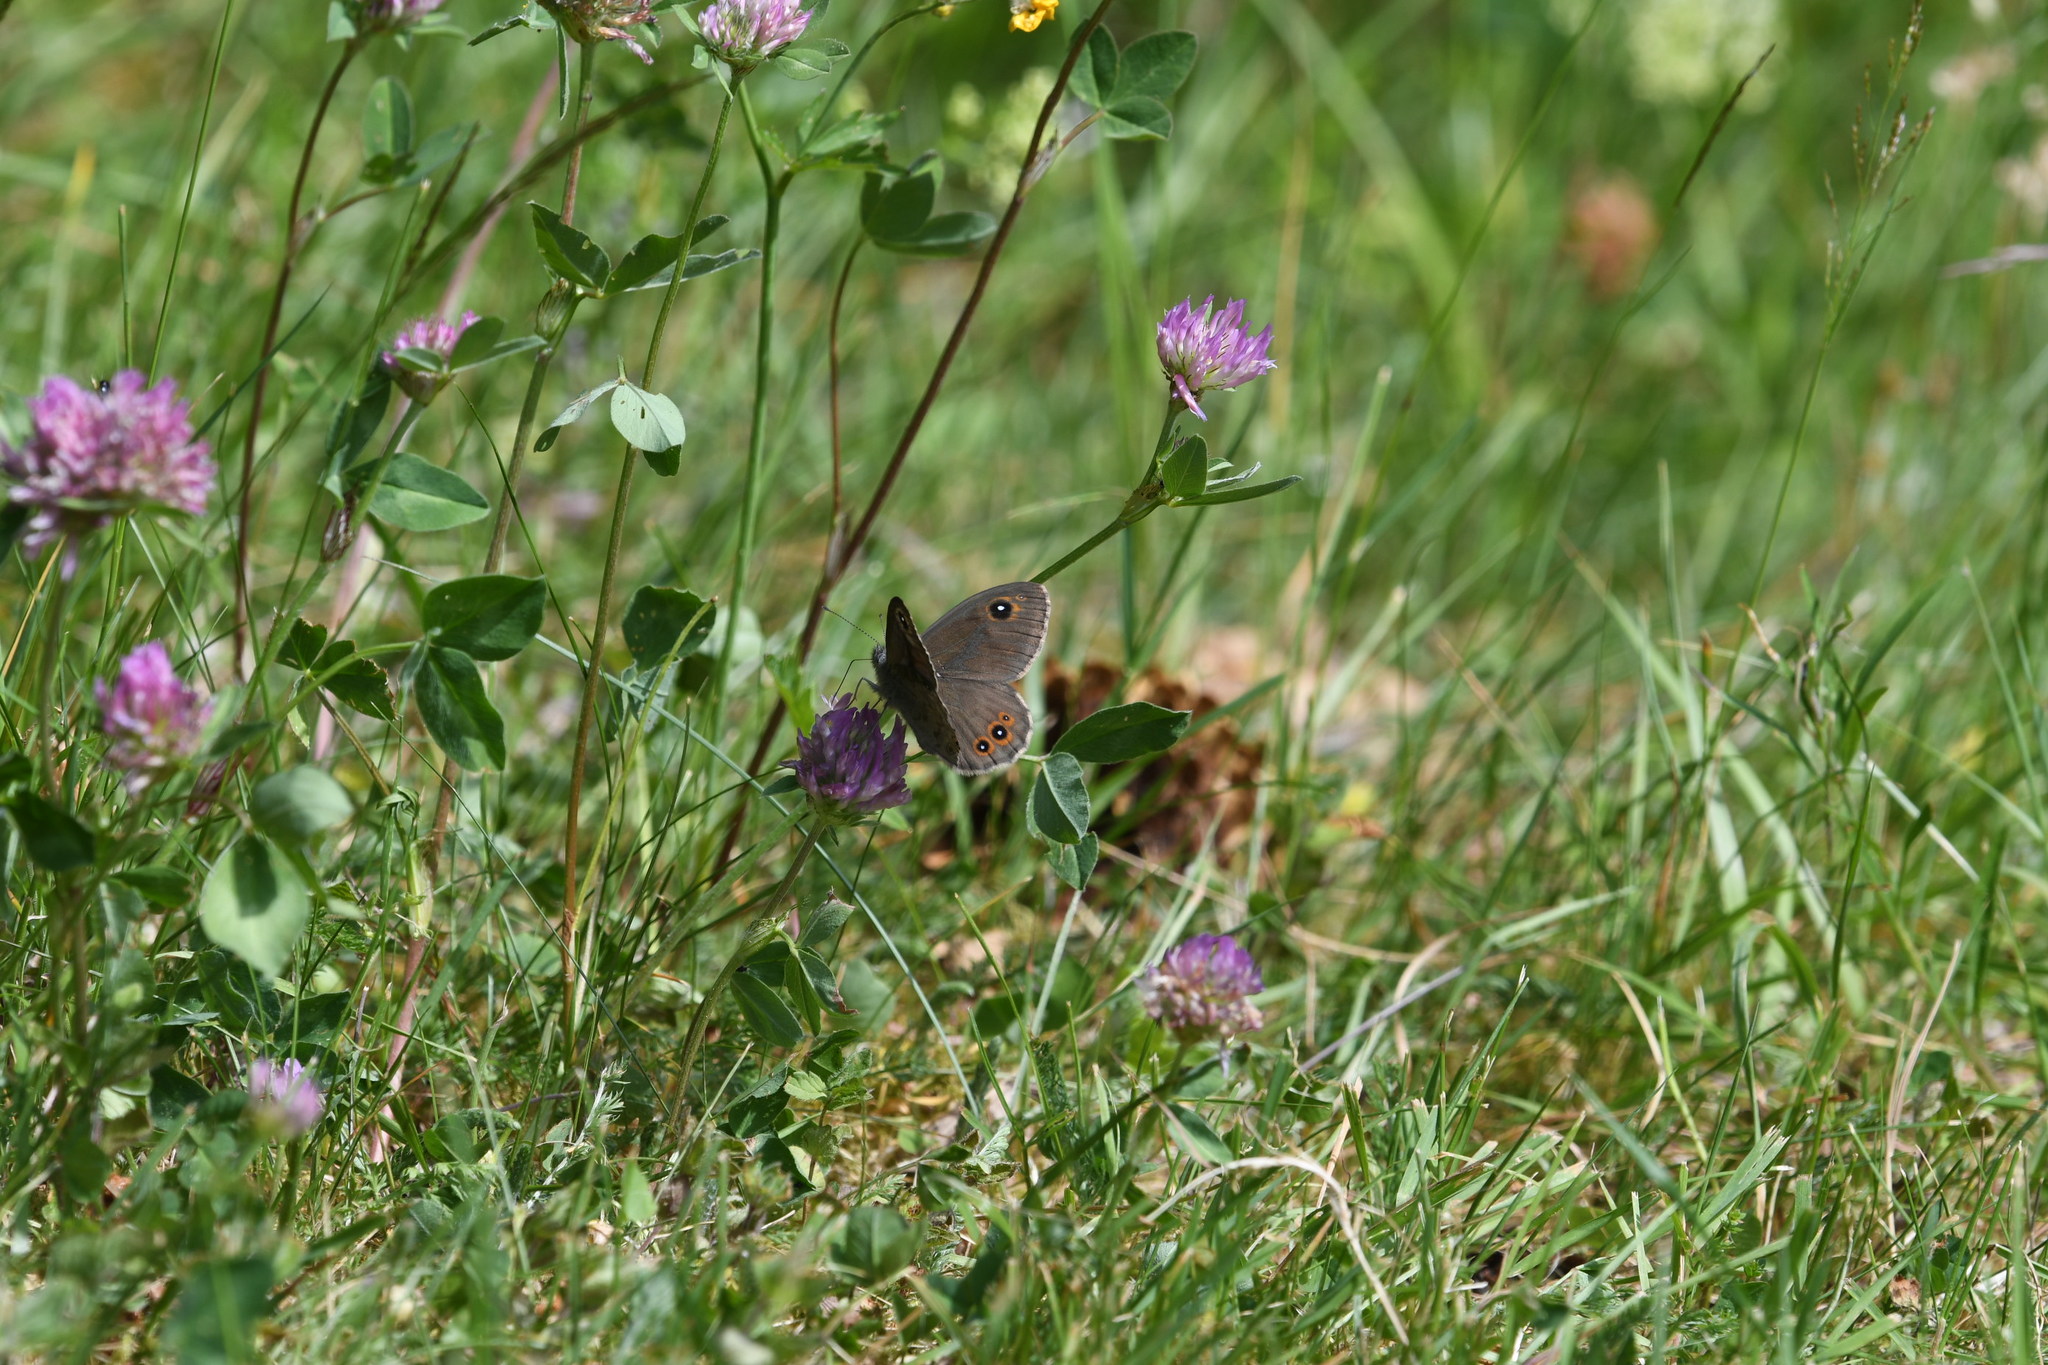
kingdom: Animalia
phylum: Arthropoda
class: Insecta
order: Lepidoptera
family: Nymphalidae
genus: Pararge
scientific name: Pararge Lasiommata maera
